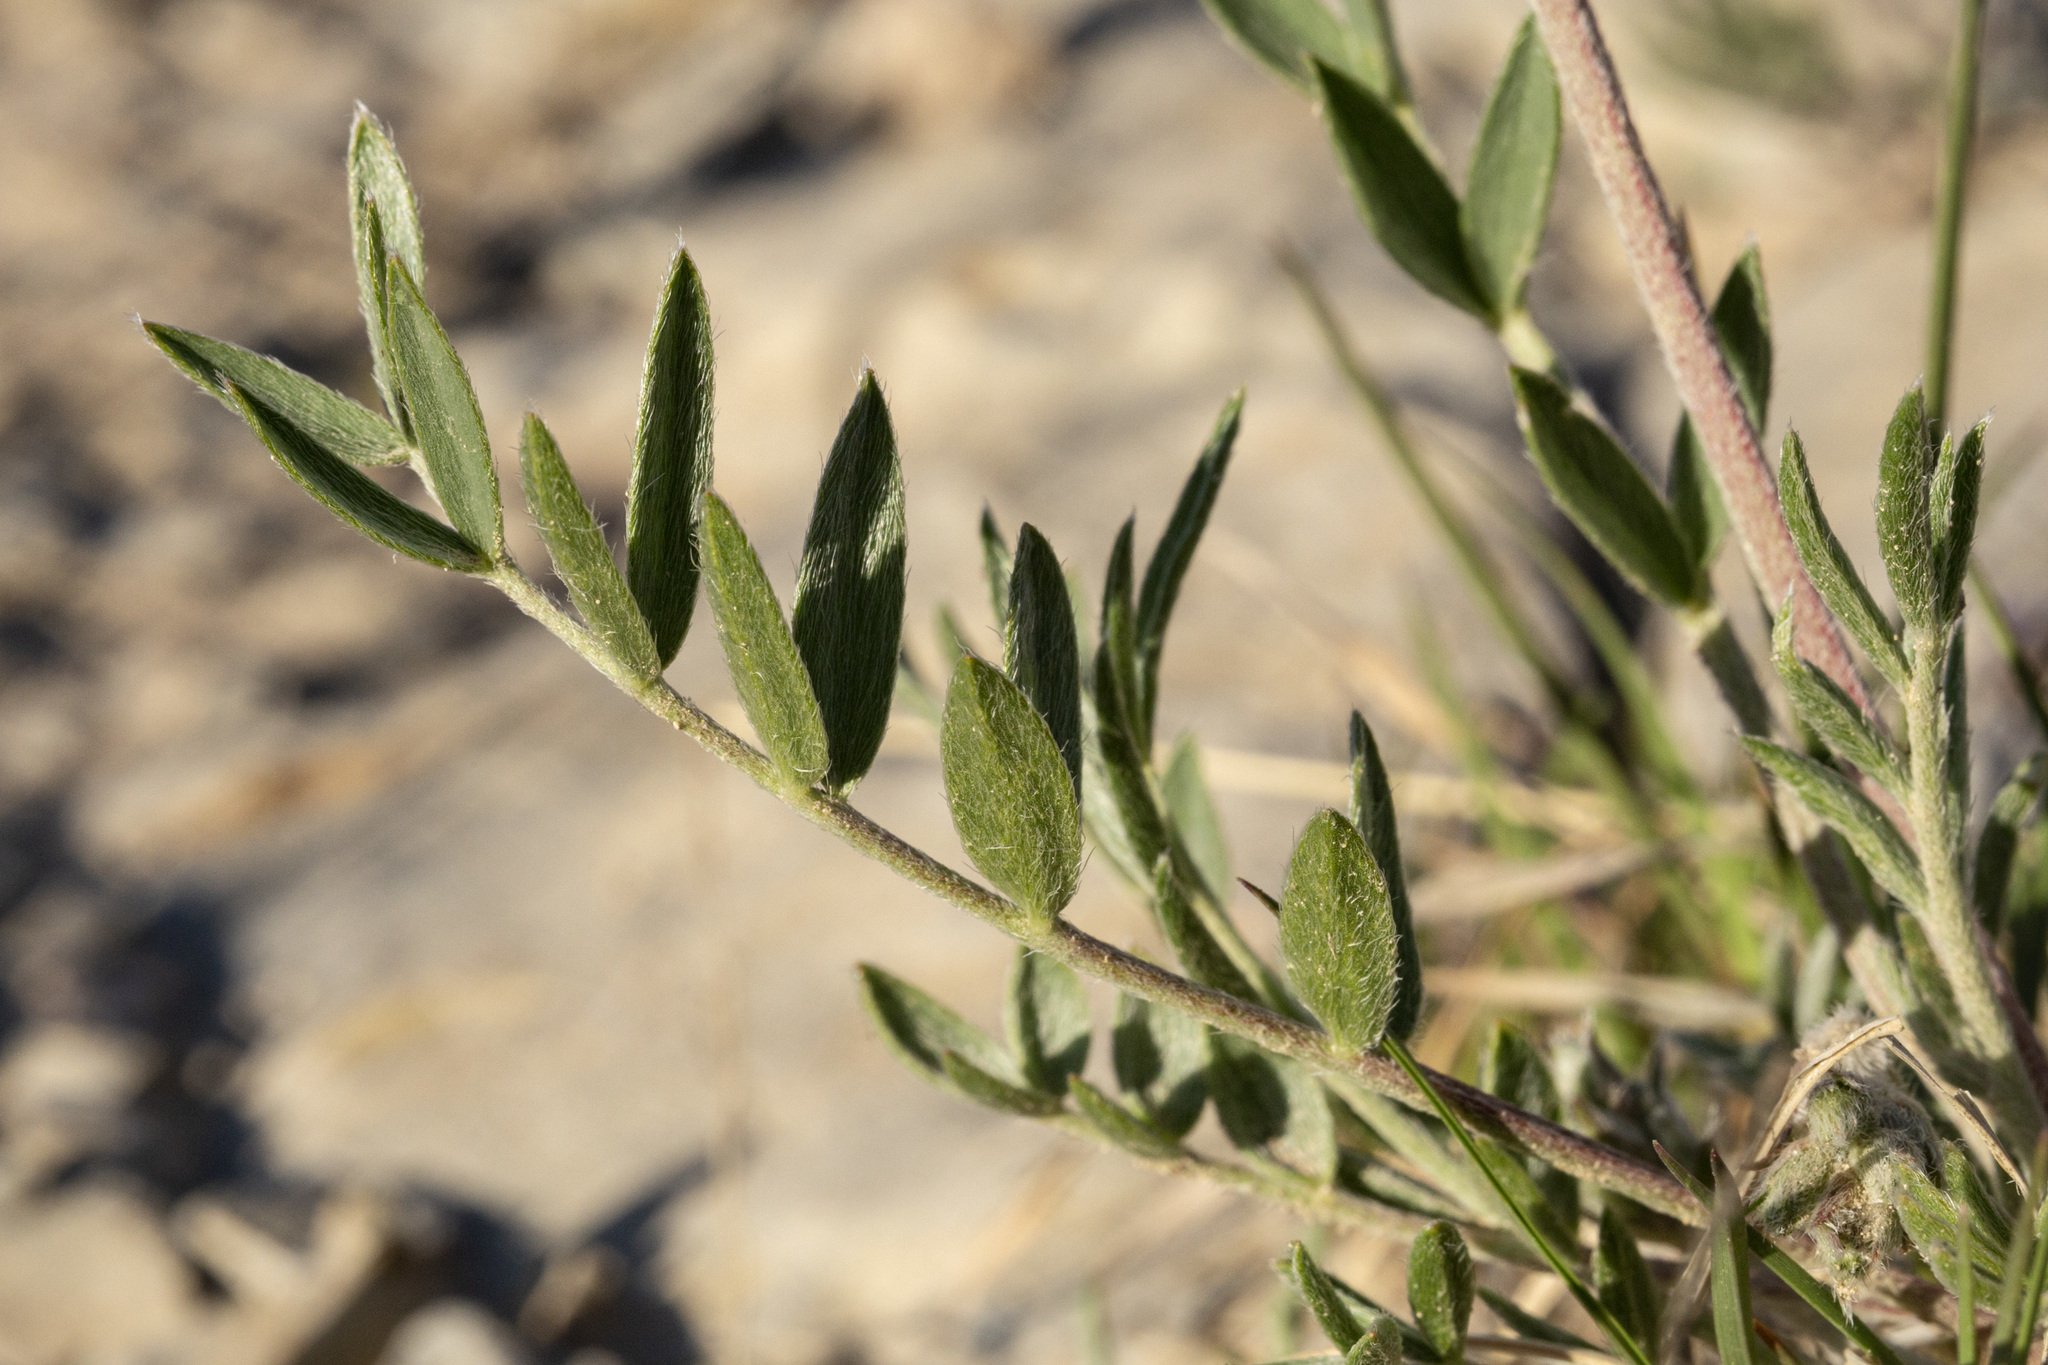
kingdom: Plantae
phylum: Tracheophyta
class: Magnoliopsida
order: Fabales
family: Fabaceae
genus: Oxytropis
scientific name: Oxytropis lambertii
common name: Purple locoweed
